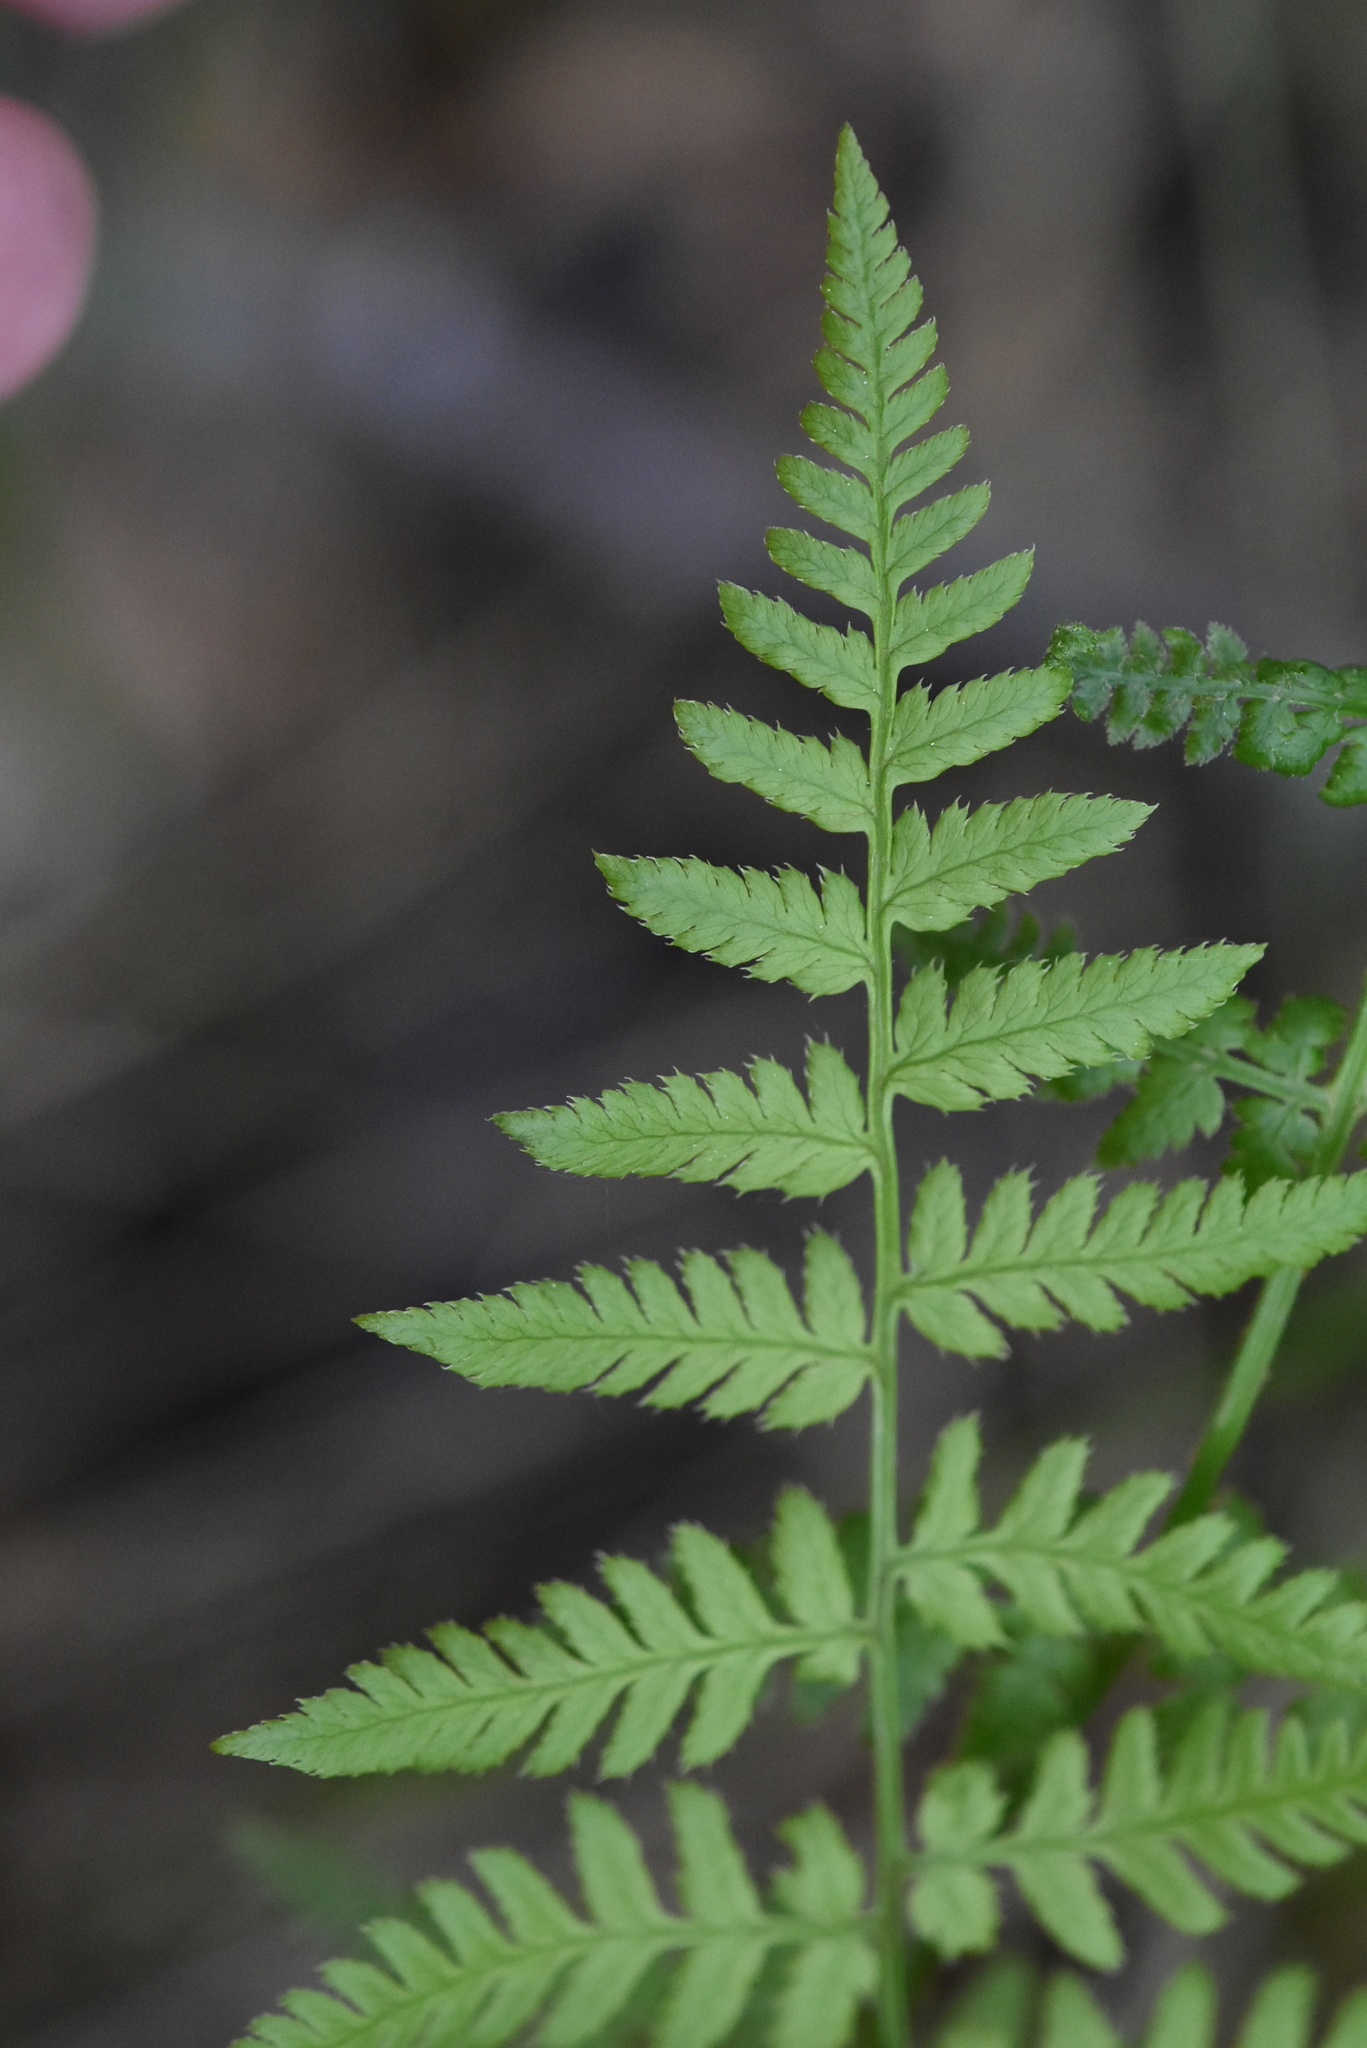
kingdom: Plantae
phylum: Tracheophyta
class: Polypodiopsida
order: Polypodiales
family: Dryopteridaceae
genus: Dryopteris
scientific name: Dryopteris carthusiana
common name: Narrow buckler-fern
